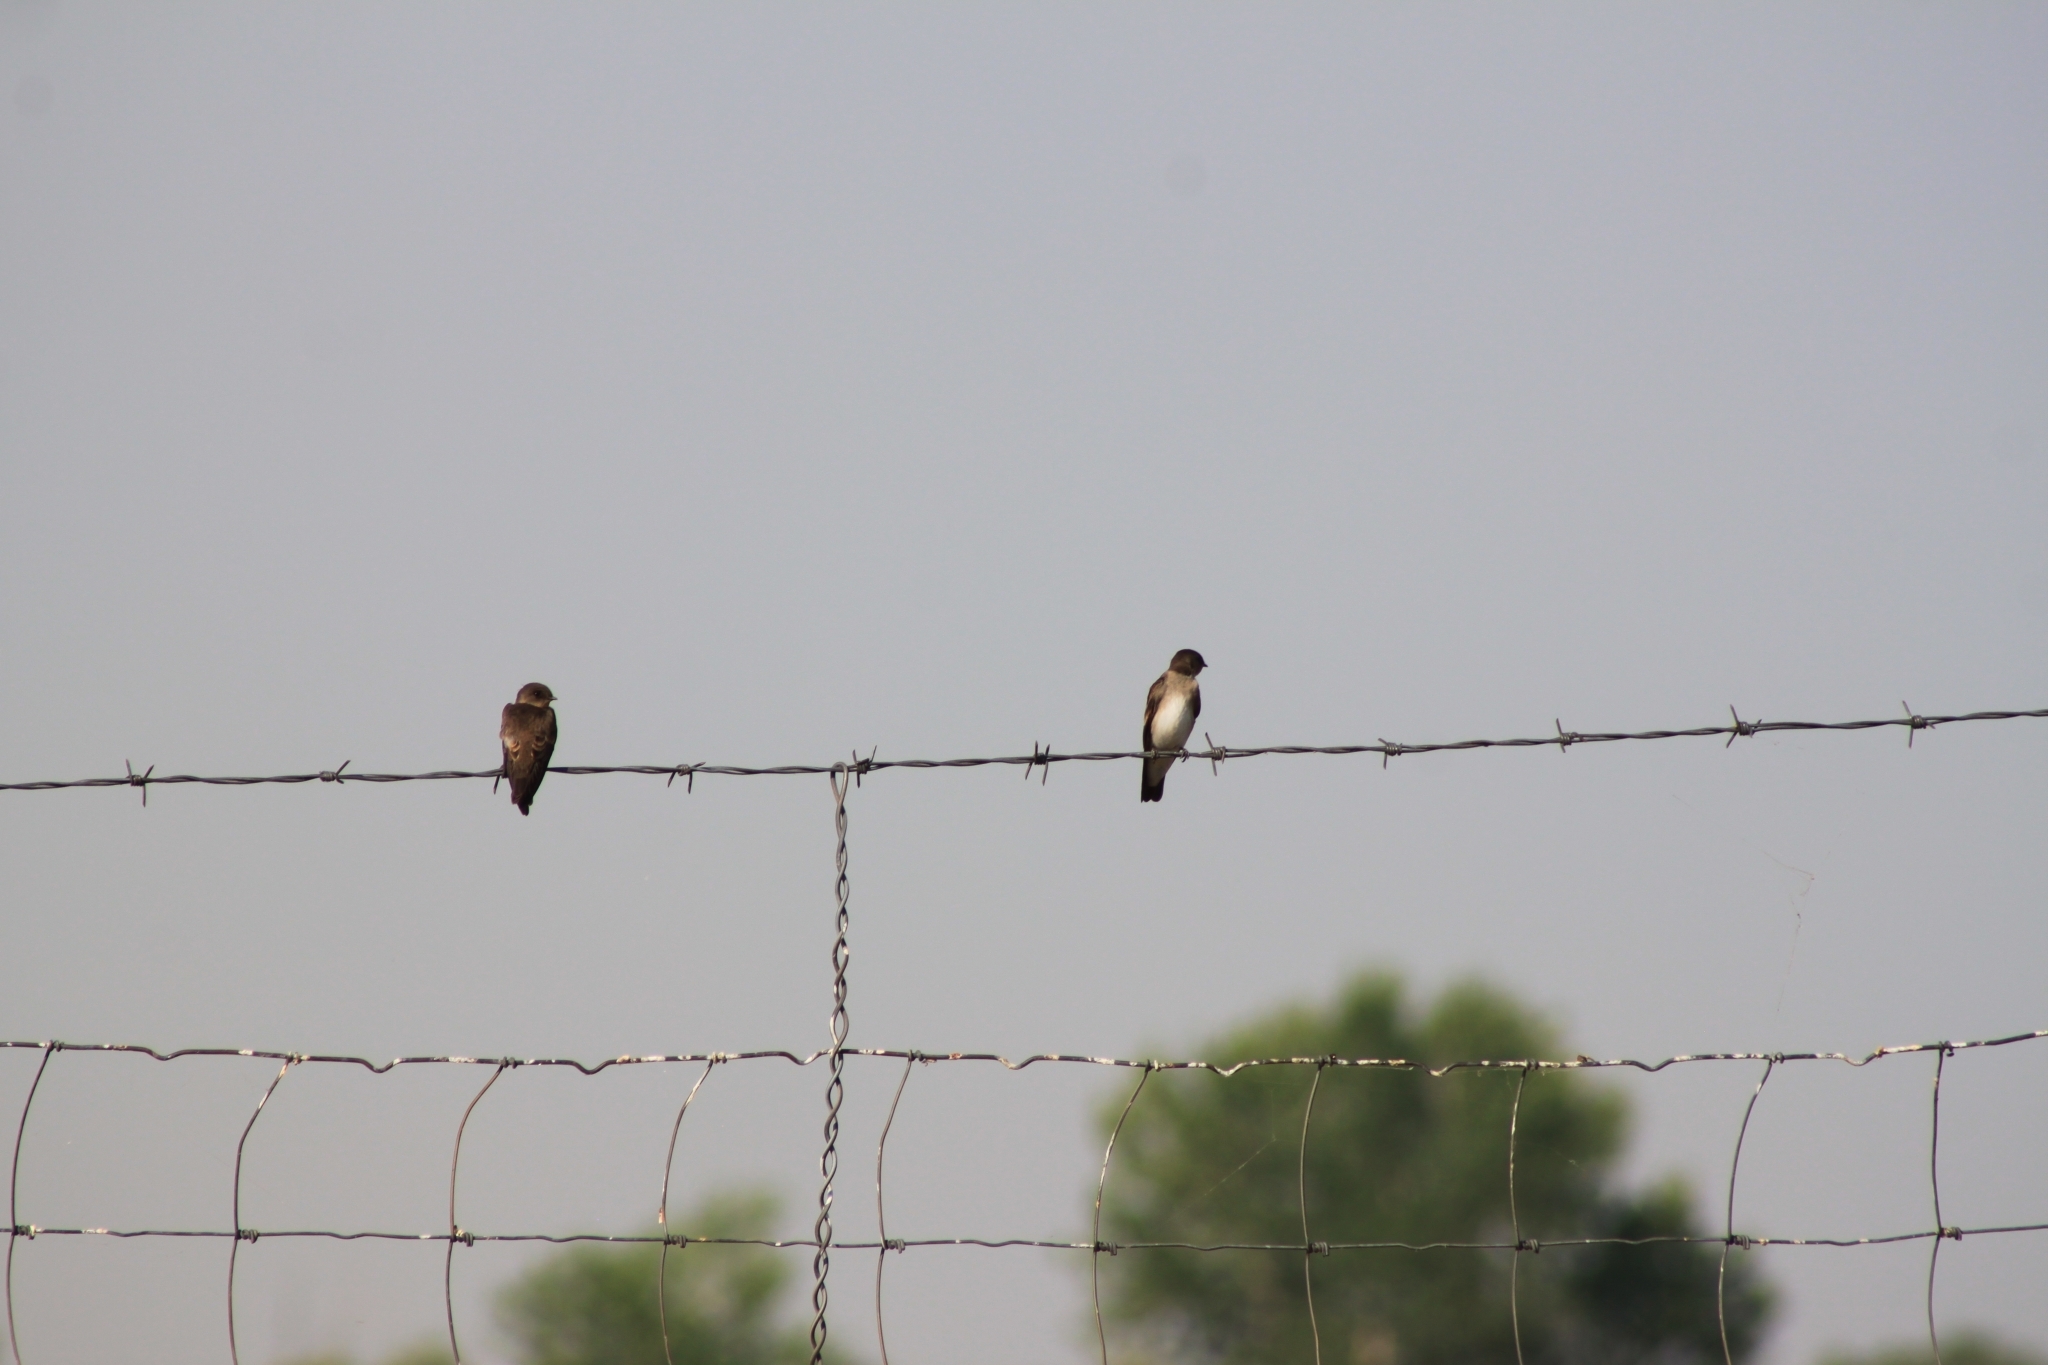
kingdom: Animalia
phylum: Chordata
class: Aves
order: Passeriformes
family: Hirundinidae
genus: Stelgidopteryx
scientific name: Stelgidopteryx serripennis
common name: Northern rough-winged swallow
